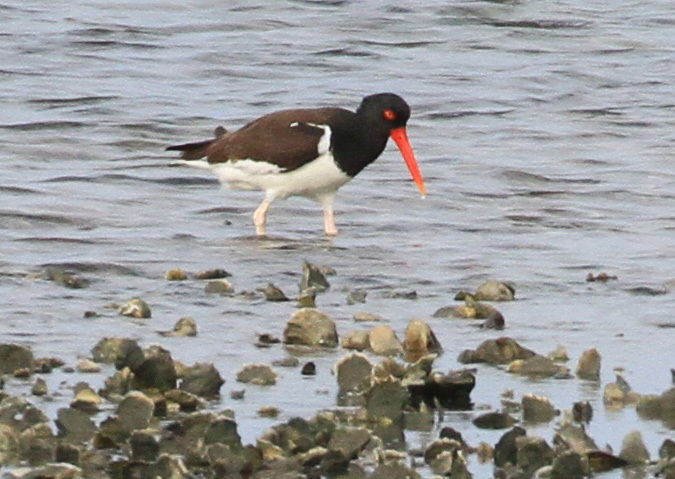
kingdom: Animalia
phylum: Chordata
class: Aves
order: Charadriiformes
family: Haematopodidae
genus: Haematopus
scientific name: Haematopus palliatus
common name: American oystercatcher
